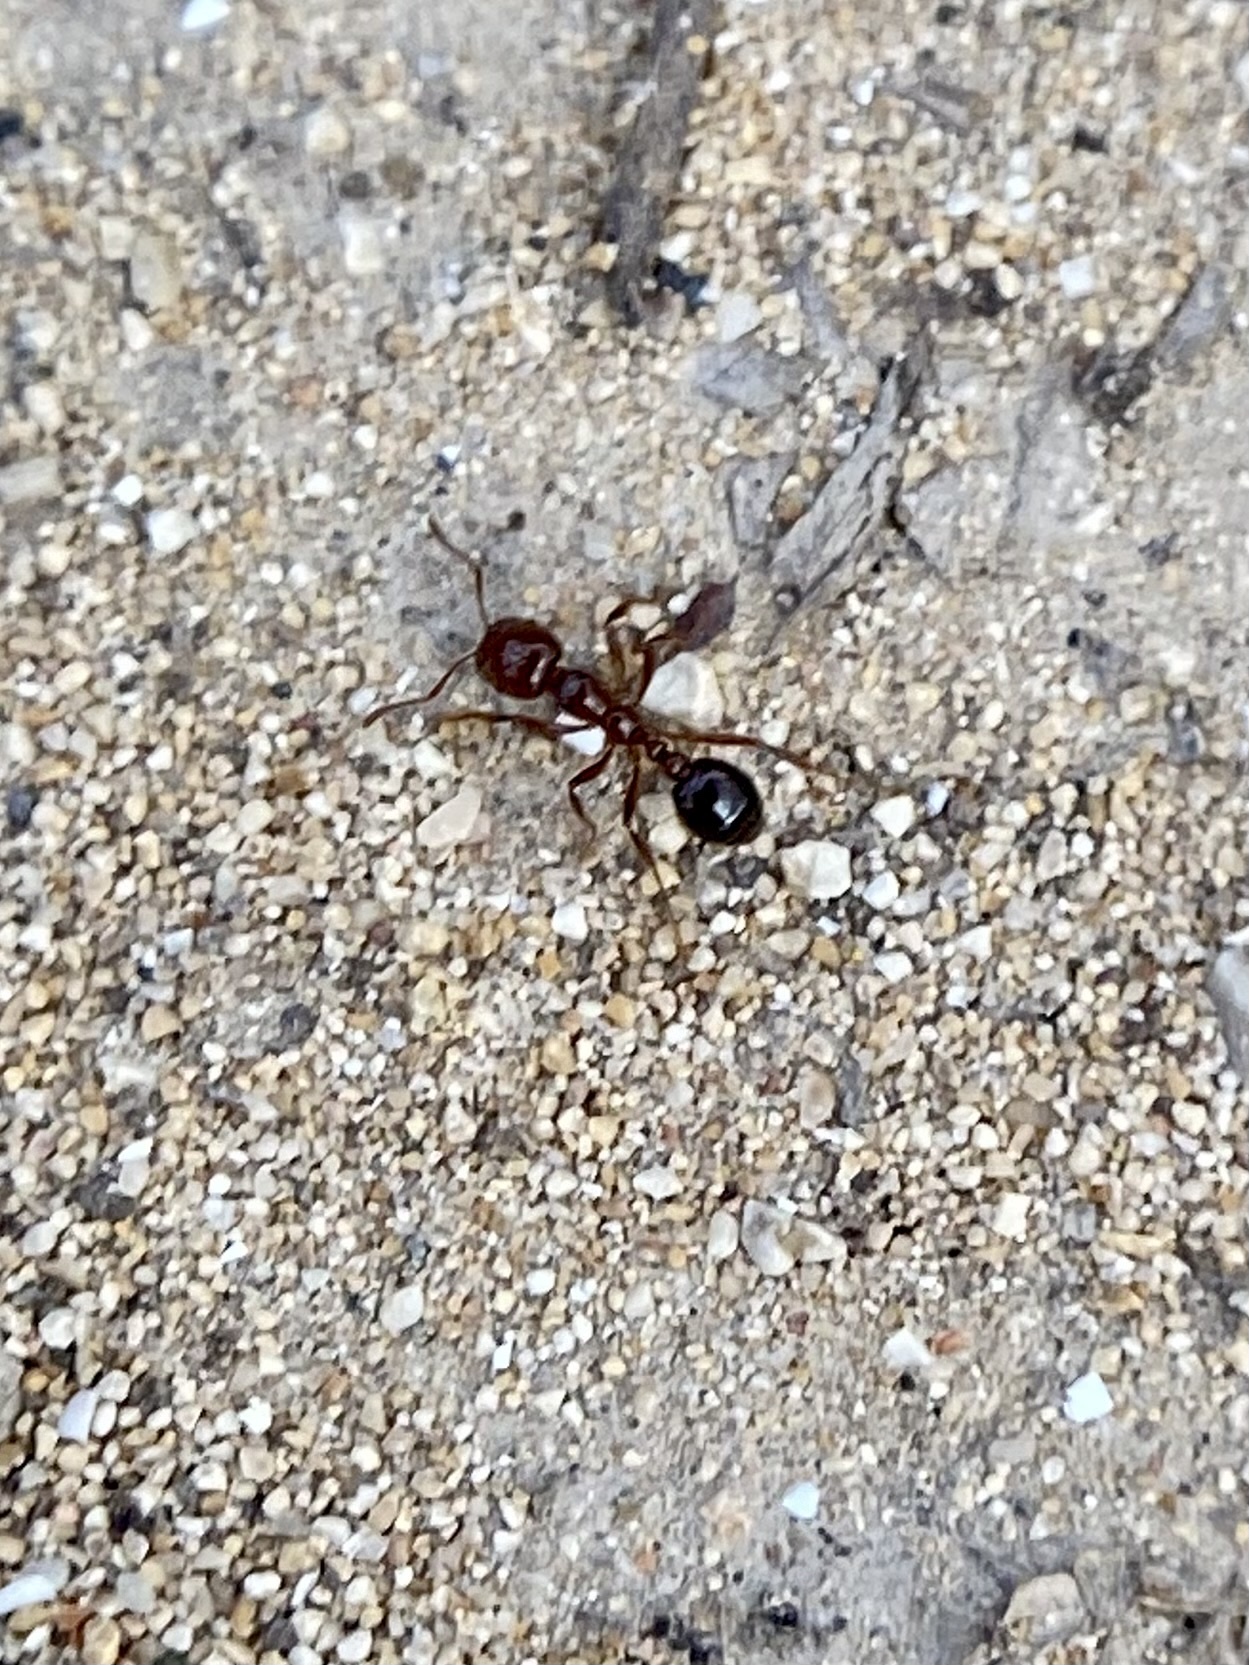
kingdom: Animalia
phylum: Arthropoda
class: Insecta
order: Hymenoptera
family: Formicidae
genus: Solenopsis
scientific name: Solenopsis invicta
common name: Red imported fire ant
